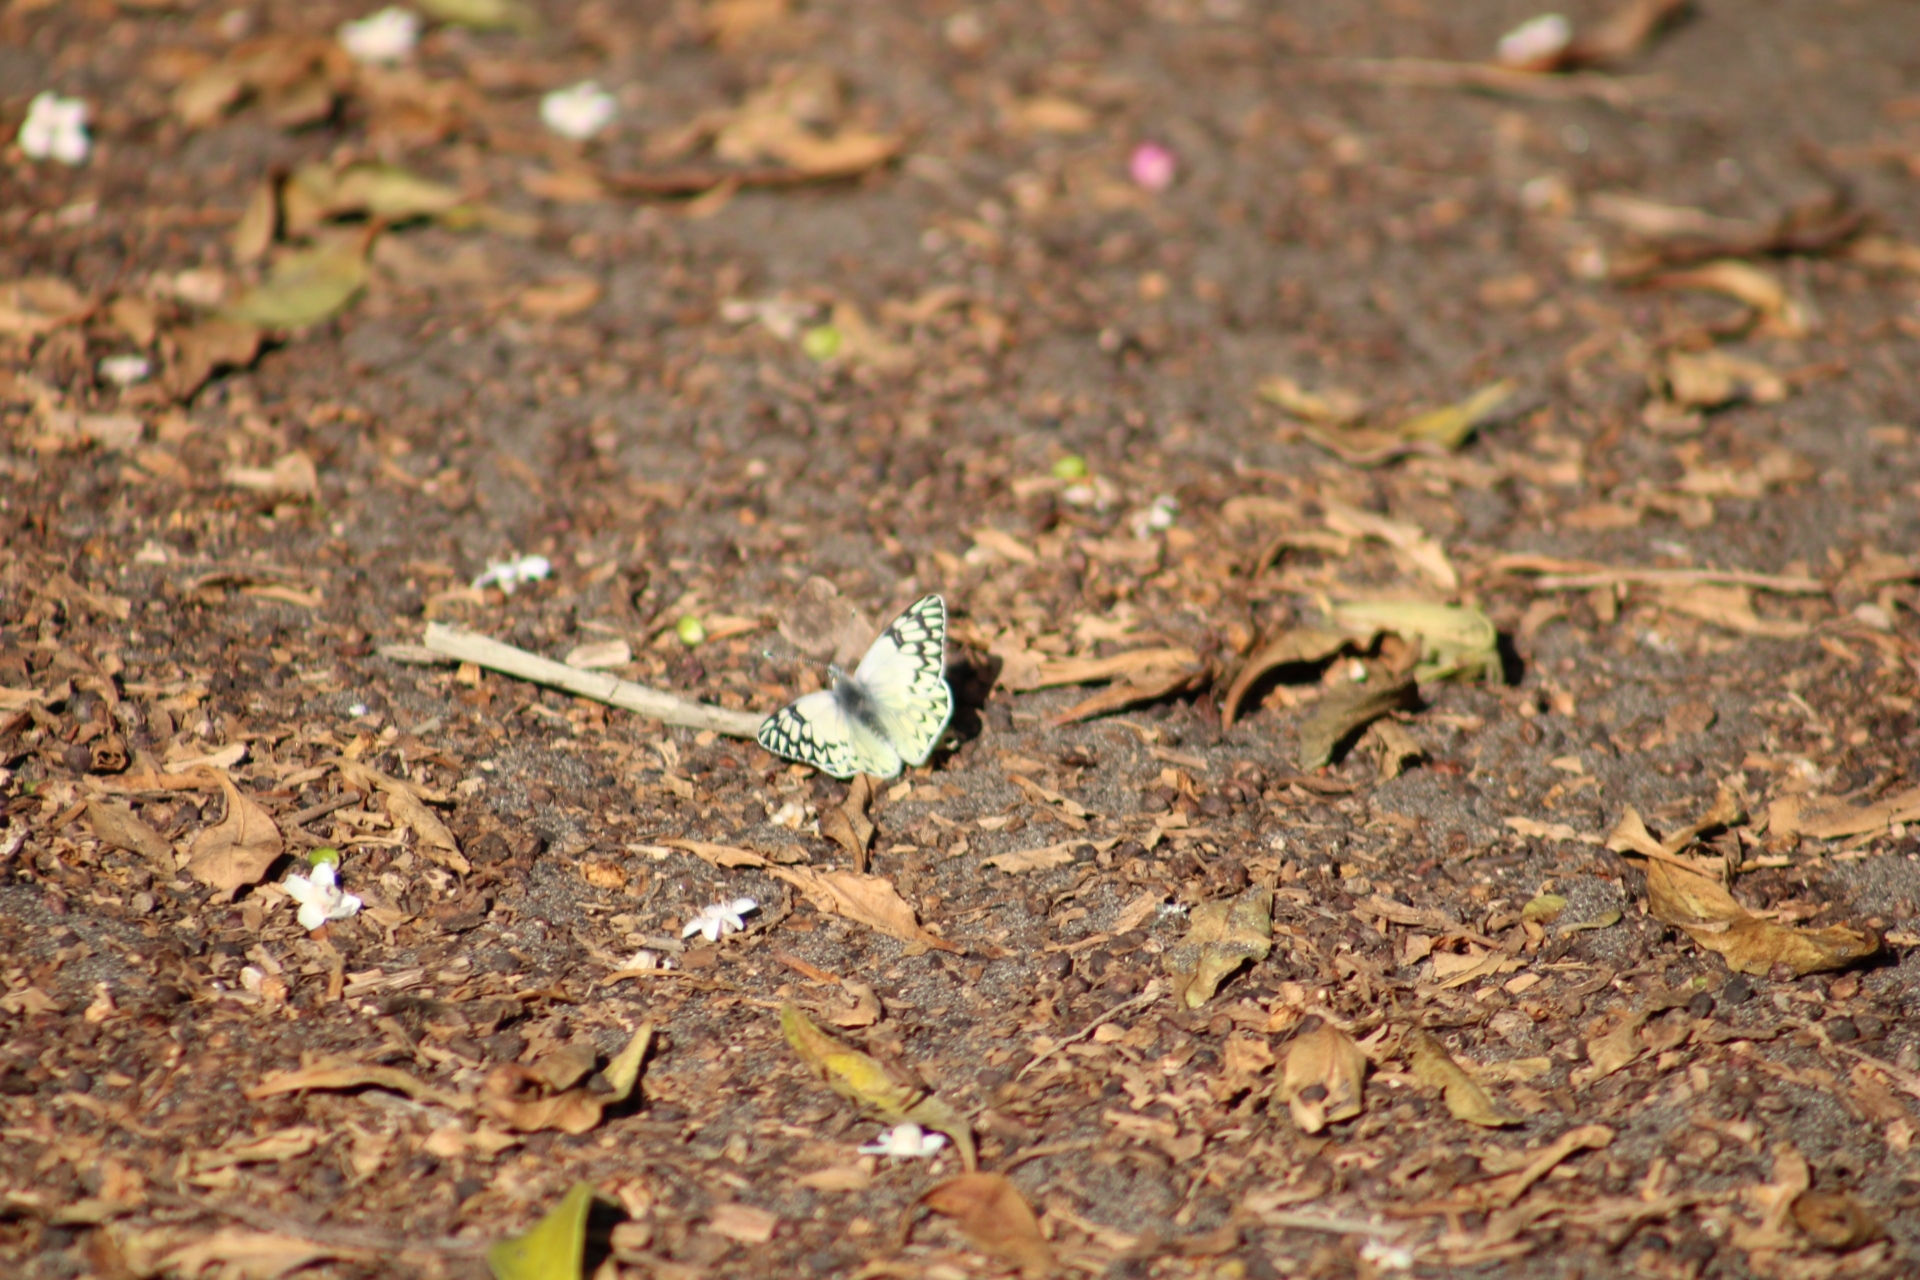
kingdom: Animalia
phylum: Arthropoda
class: Insecta
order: Lepidoptera
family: Pieridae
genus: Tatochila
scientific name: Tatochila autodice
